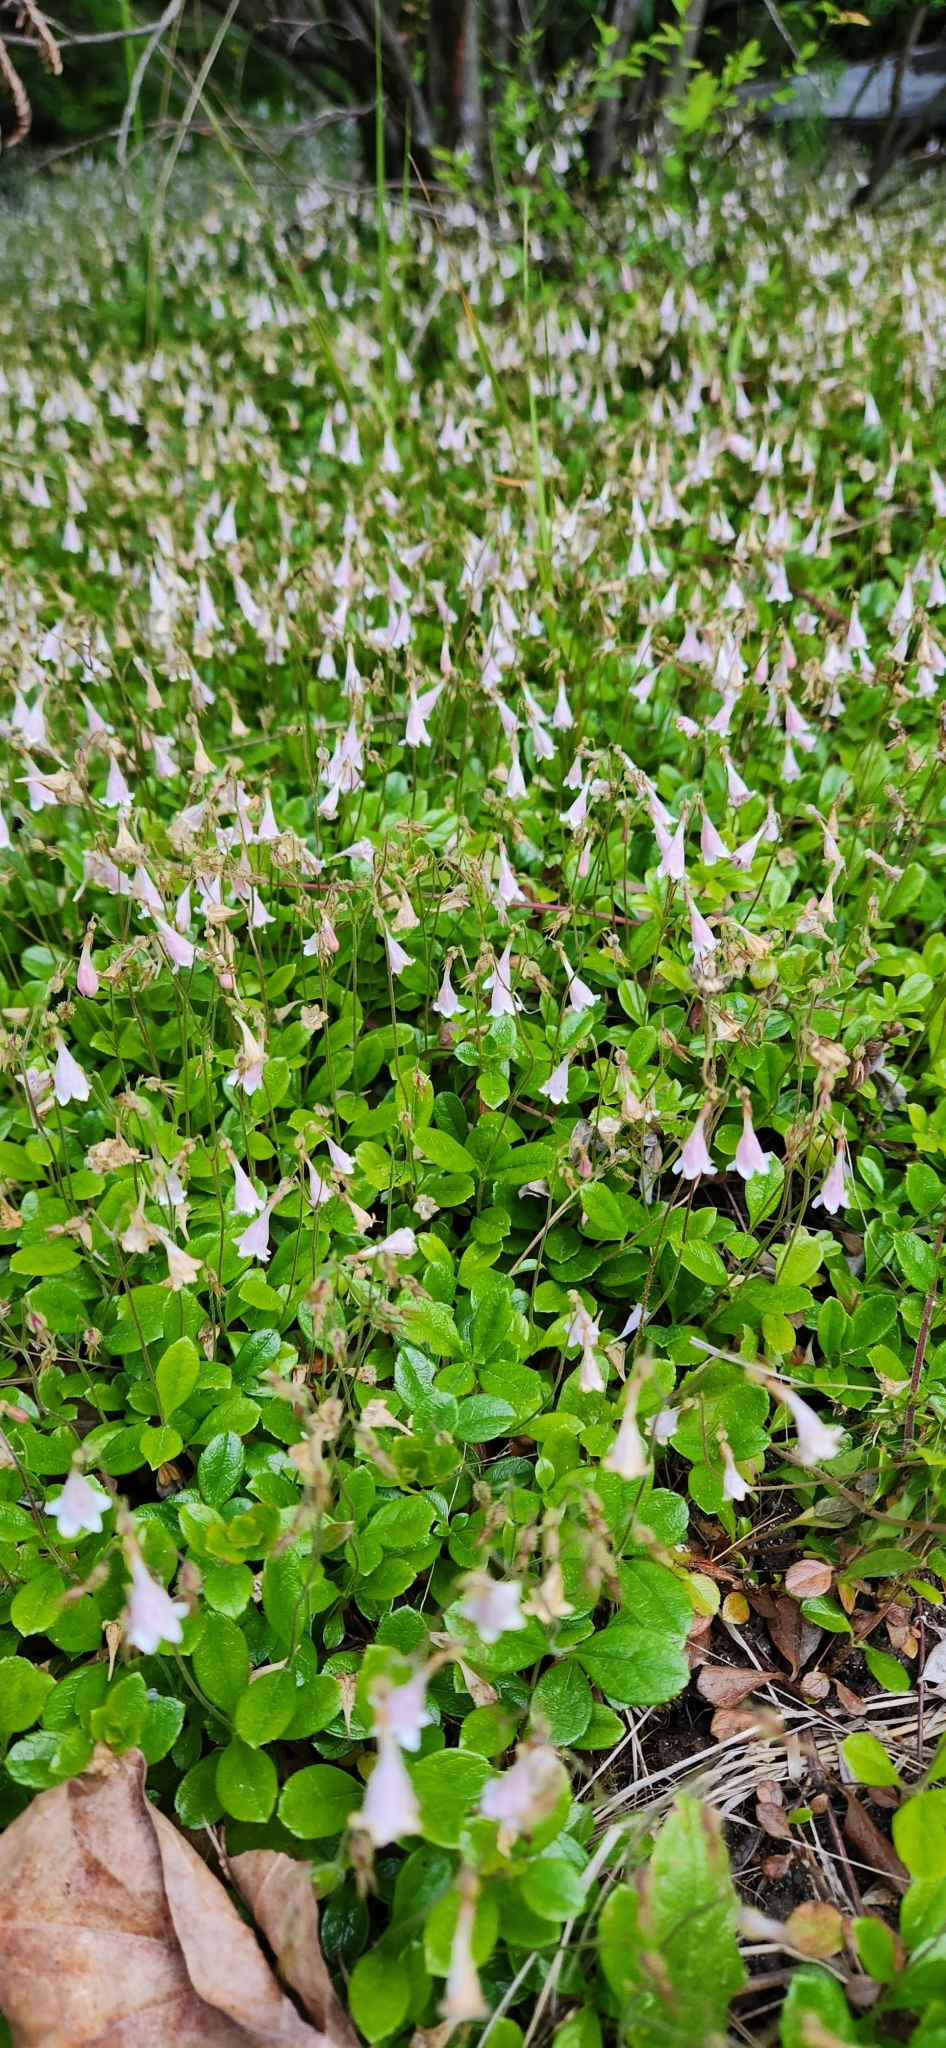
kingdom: Plantae
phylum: Tracheophyta
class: Magnoliopsida
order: Dipsacales
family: Caprifoliaceae
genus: Linnaea
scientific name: Linnaea borealis
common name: Twinflower
